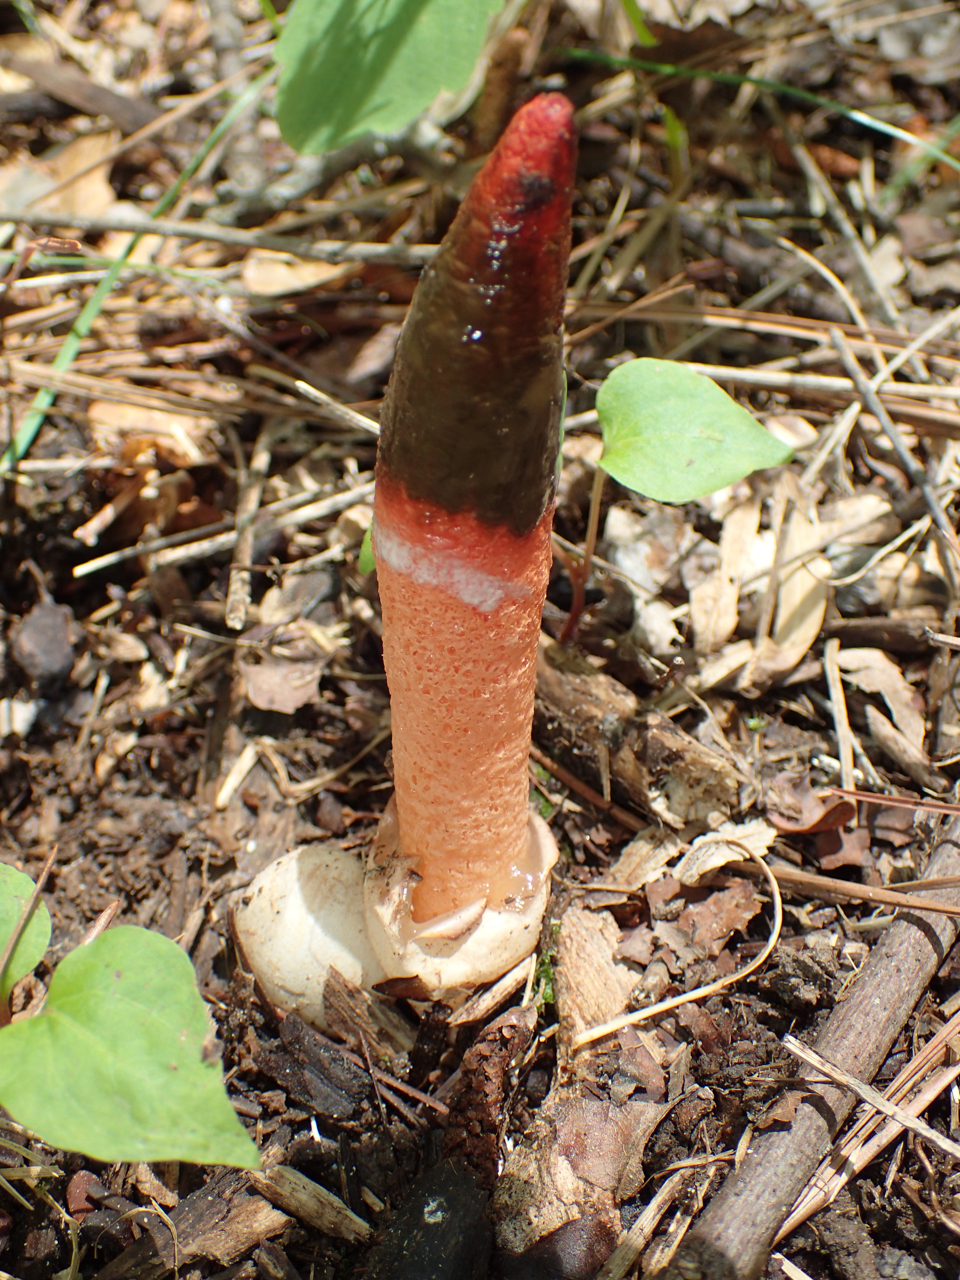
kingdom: Fungi
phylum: Basidiomycota
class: Agaricomycetes
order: Phallales
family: Phallaceae
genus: Mutinus
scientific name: Mutinus elegans
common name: Devil's dipstick
